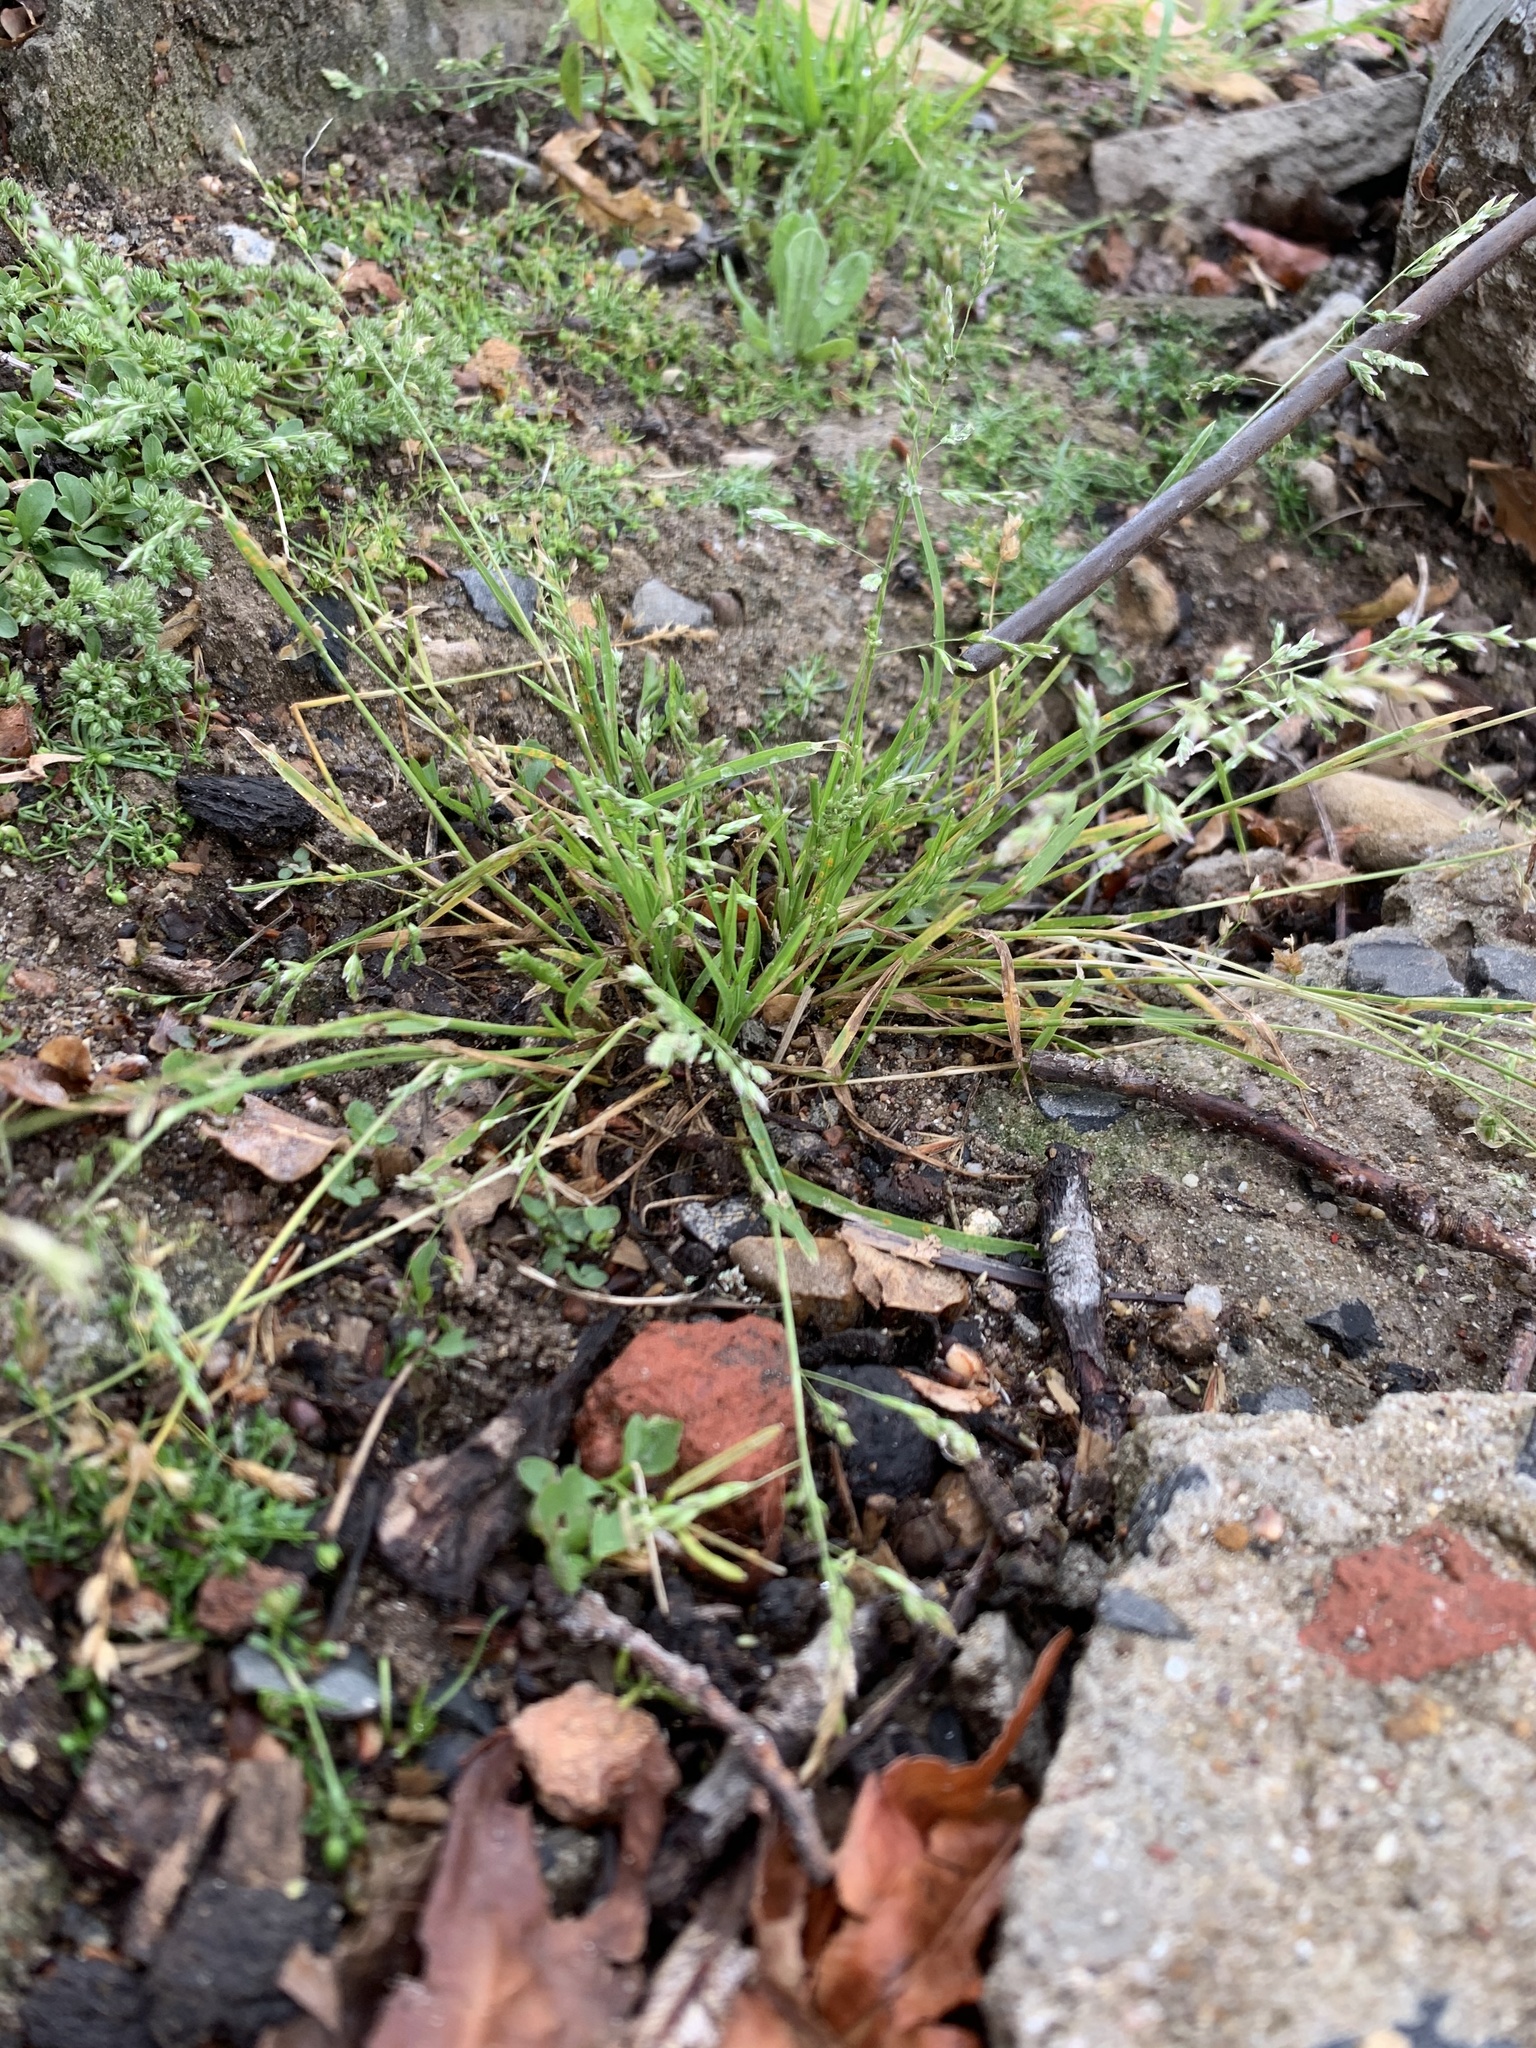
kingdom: Plantae
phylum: Tracheophyta
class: Liliopsida
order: Poales
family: Poaceae
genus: Poa
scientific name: Poa annua
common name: Annual bluegrass
